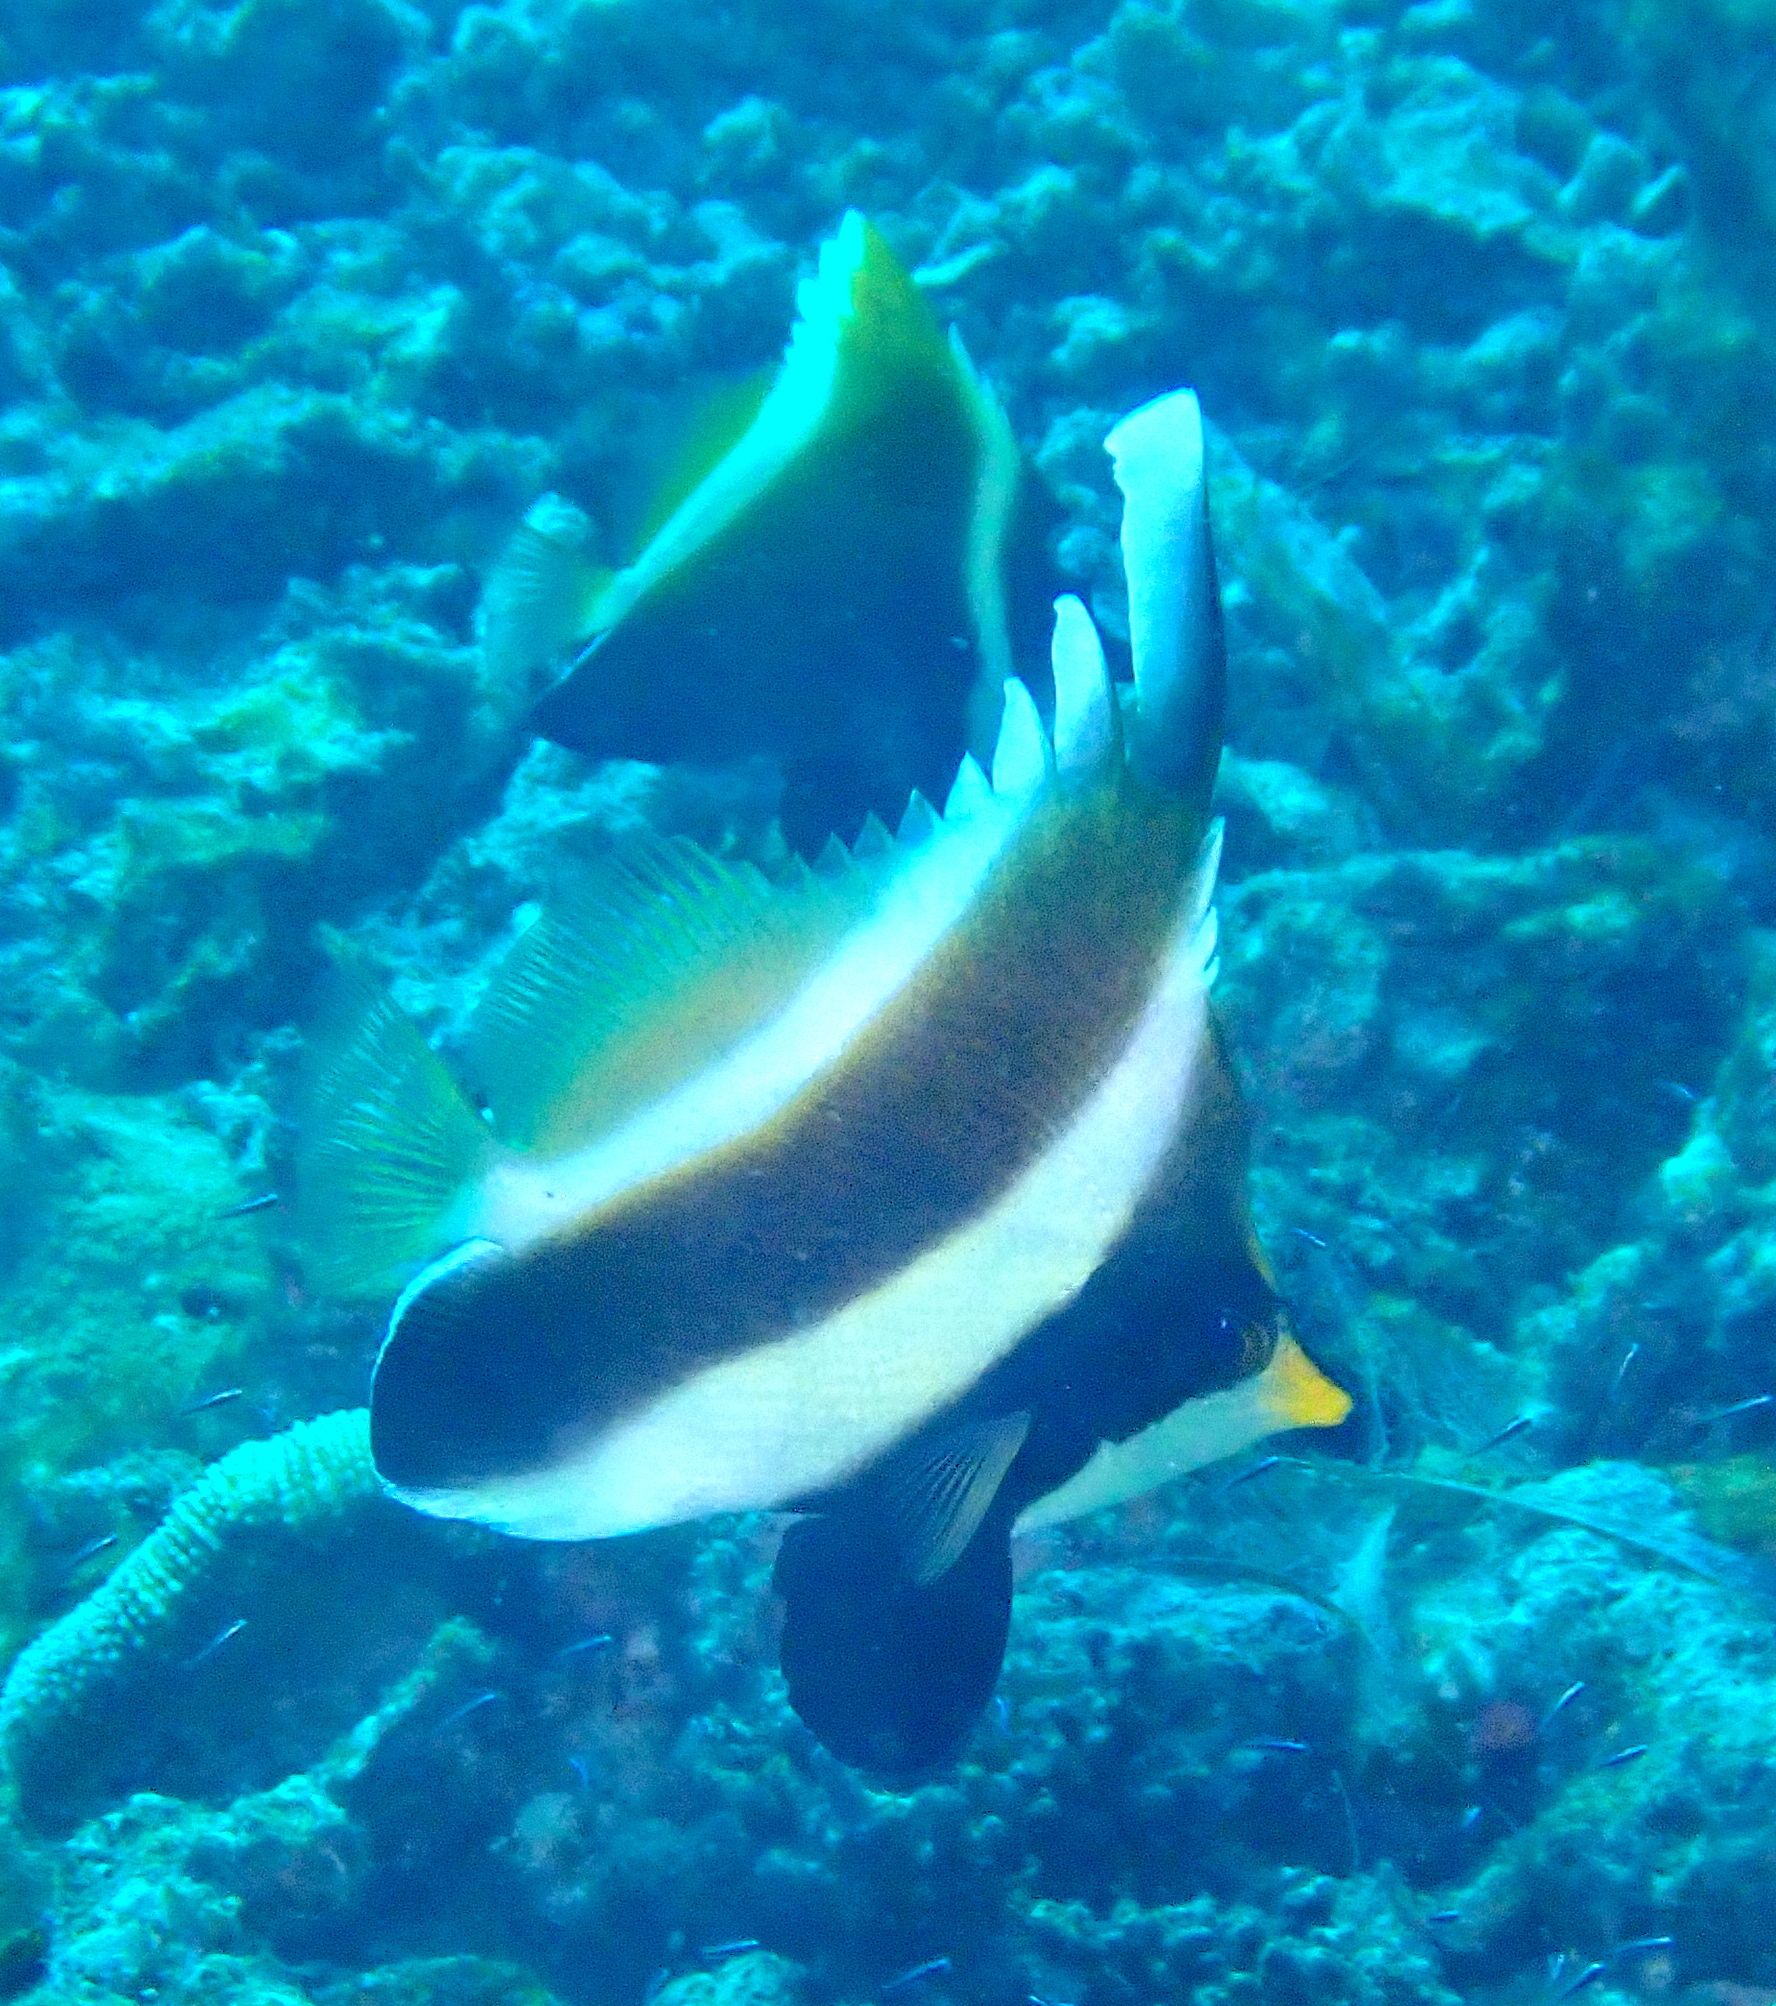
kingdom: Animalia
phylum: Chordata
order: Perciformes
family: Chaetodontidae
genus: Heniochus
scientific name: Heniochus chrysostomus
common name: Horned bannerfish
